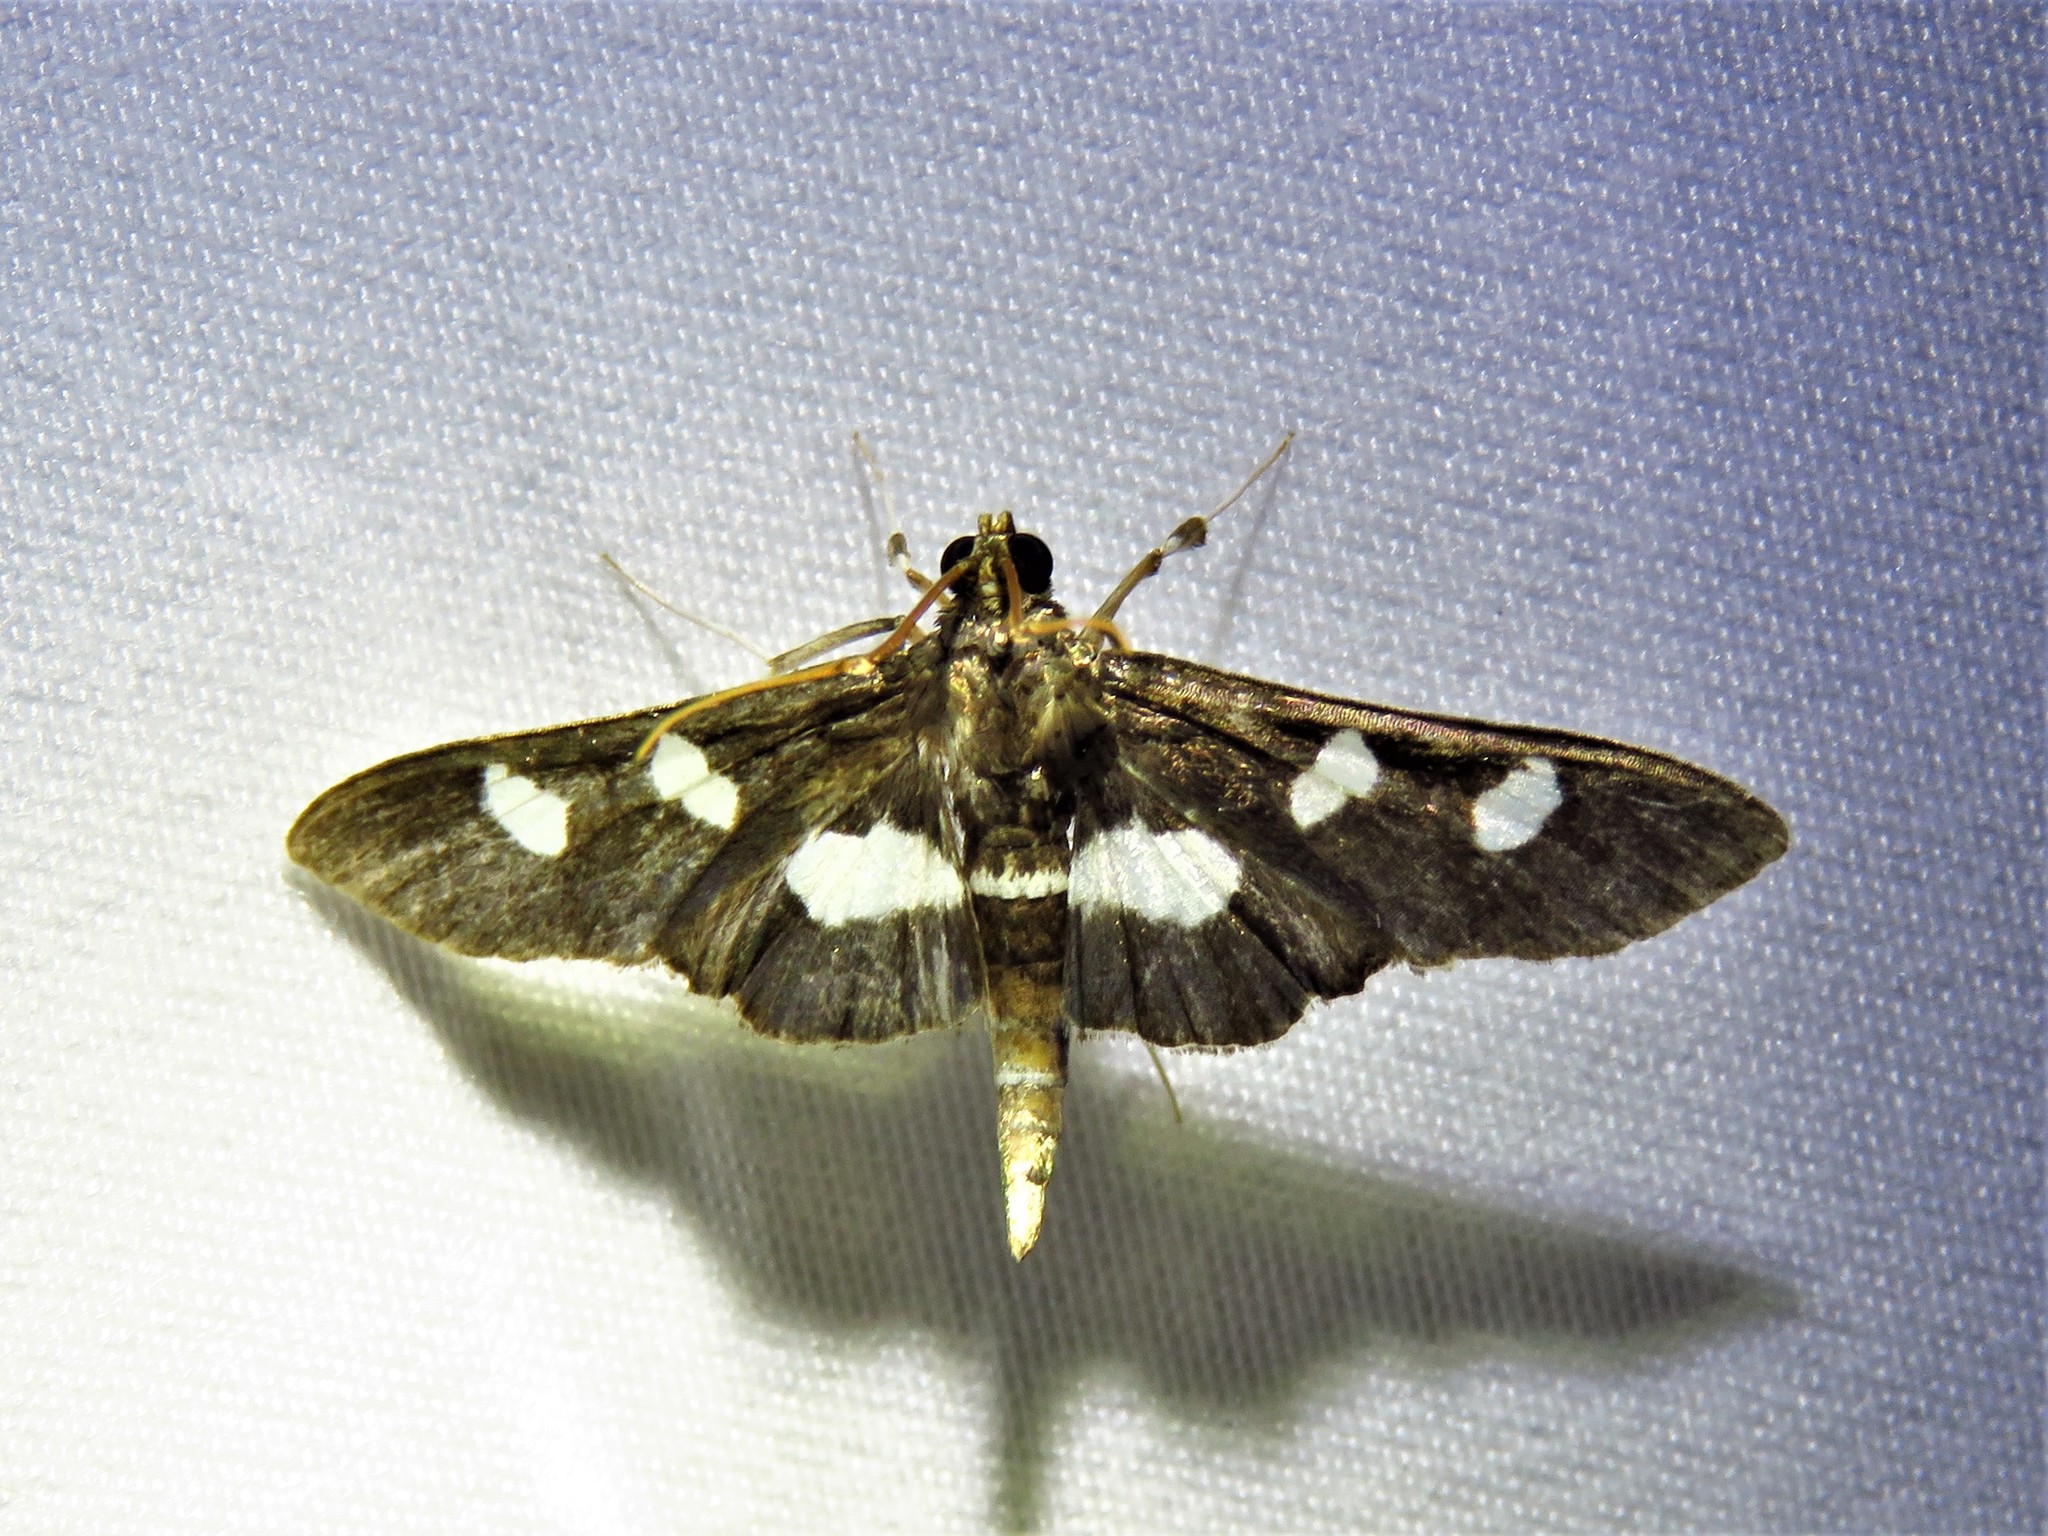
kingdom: Animalia
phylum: Arthropoda
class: Insecta
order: Lepidoptera
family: Crambidae
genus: Desmia
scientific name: Desmia
